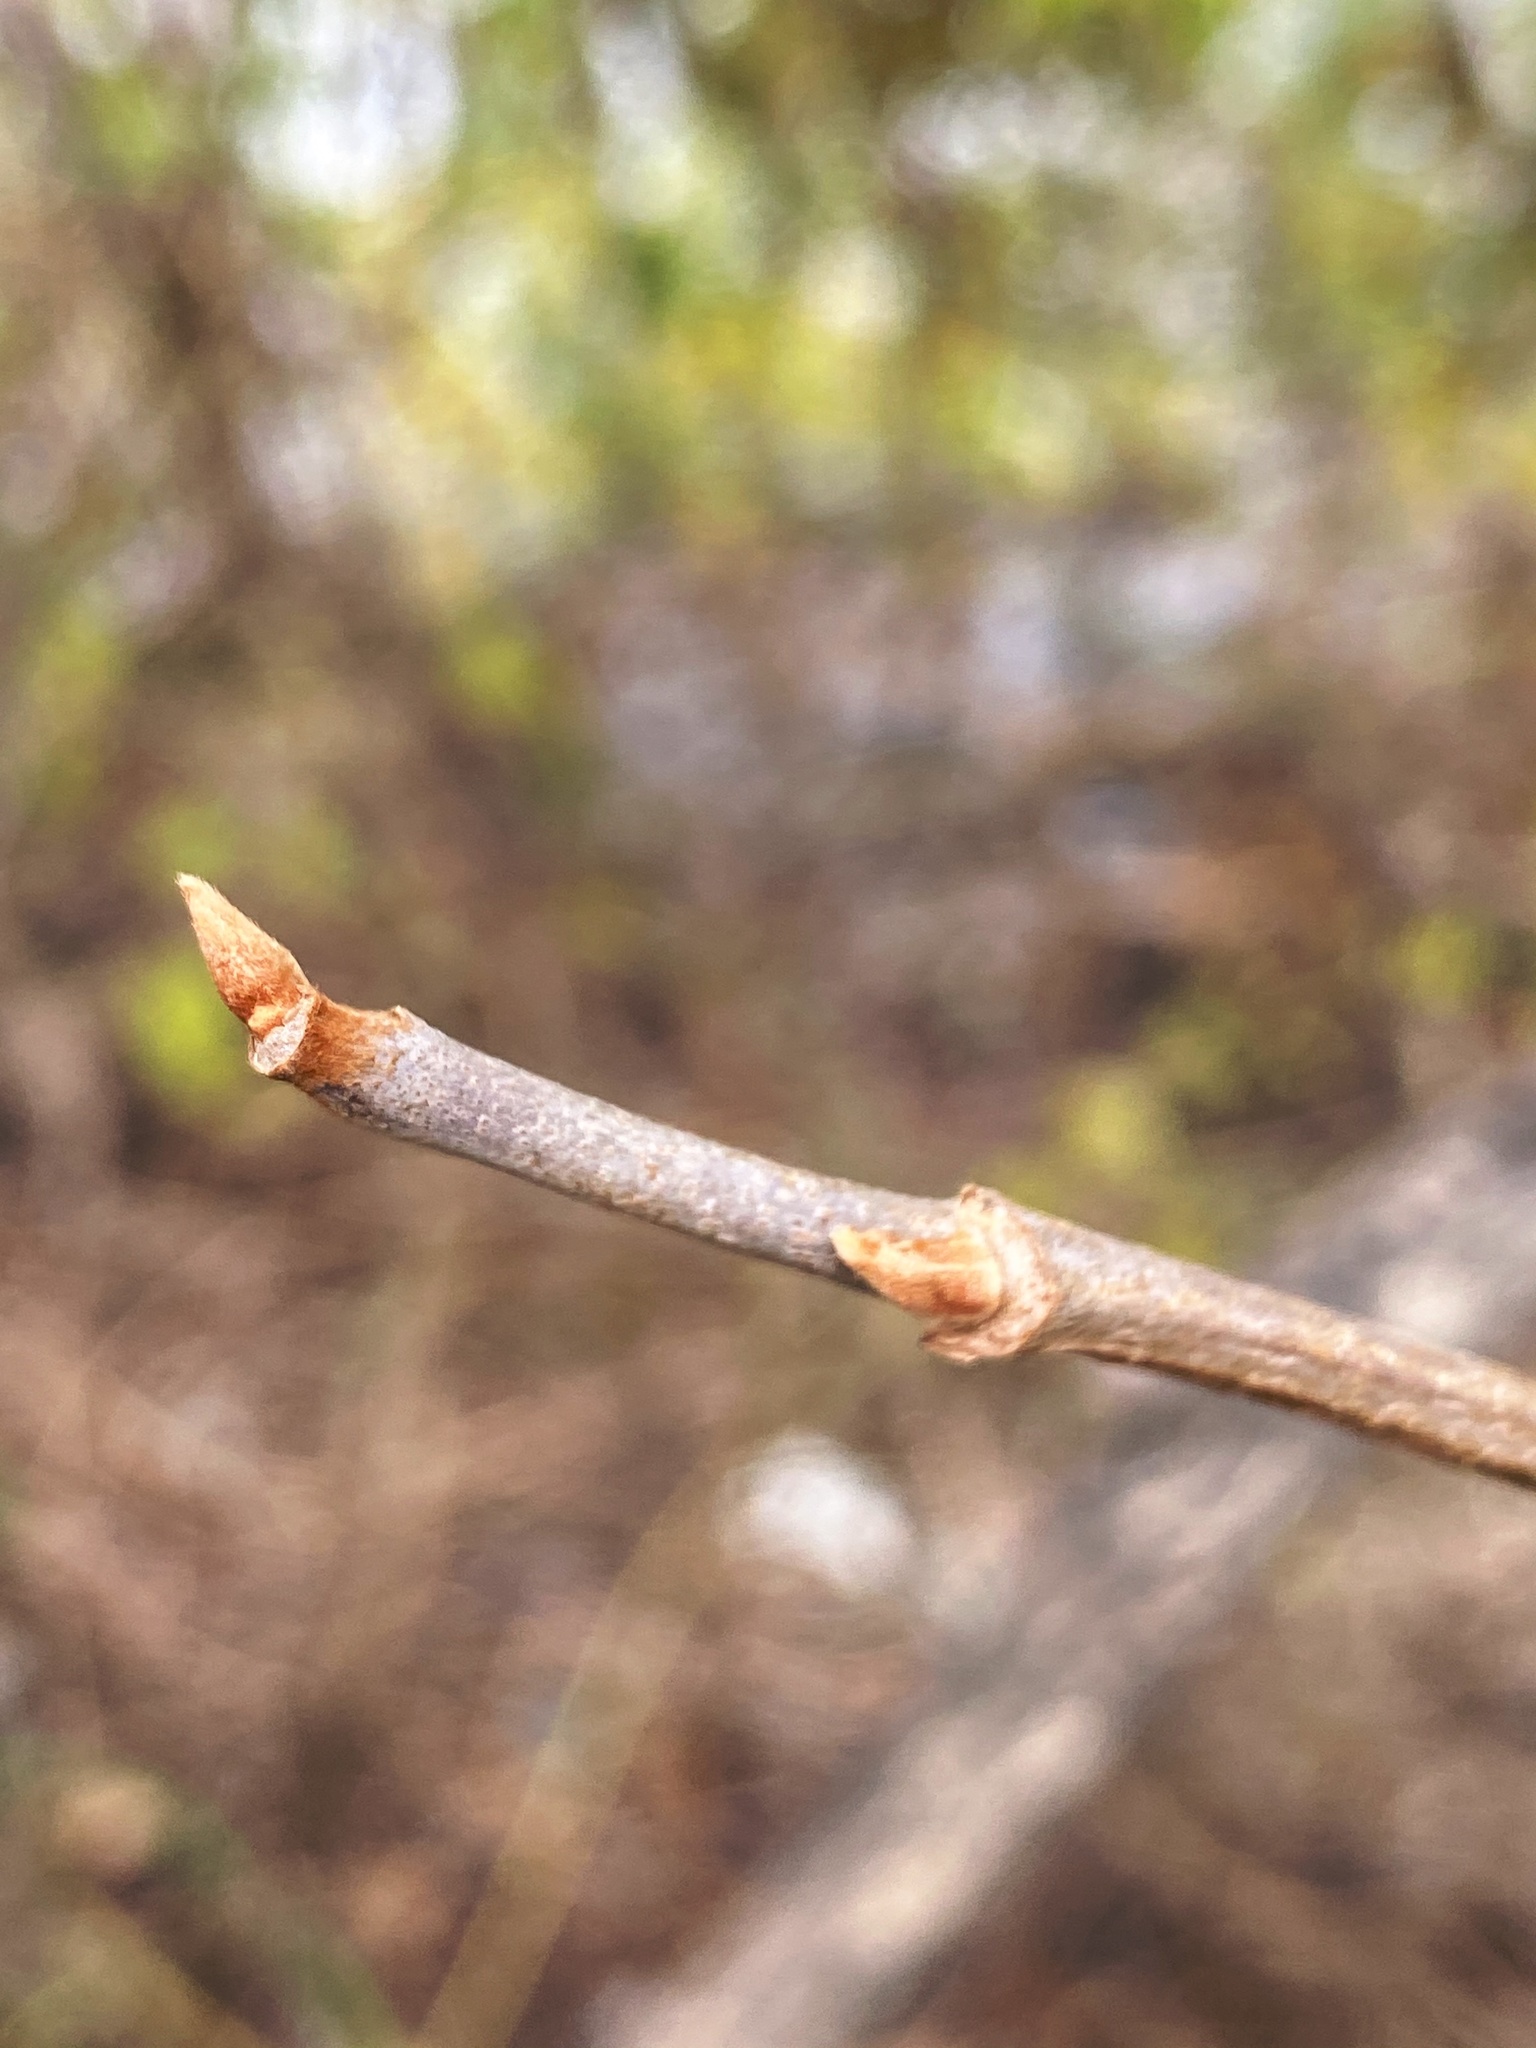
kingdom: Plantae
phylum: Tracheophyta
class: Magnoliopsida
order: Sapindales
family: Anacardiaceae
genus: Toxicodendron
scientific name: Toxicodendron radicans
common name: Poison ivy
